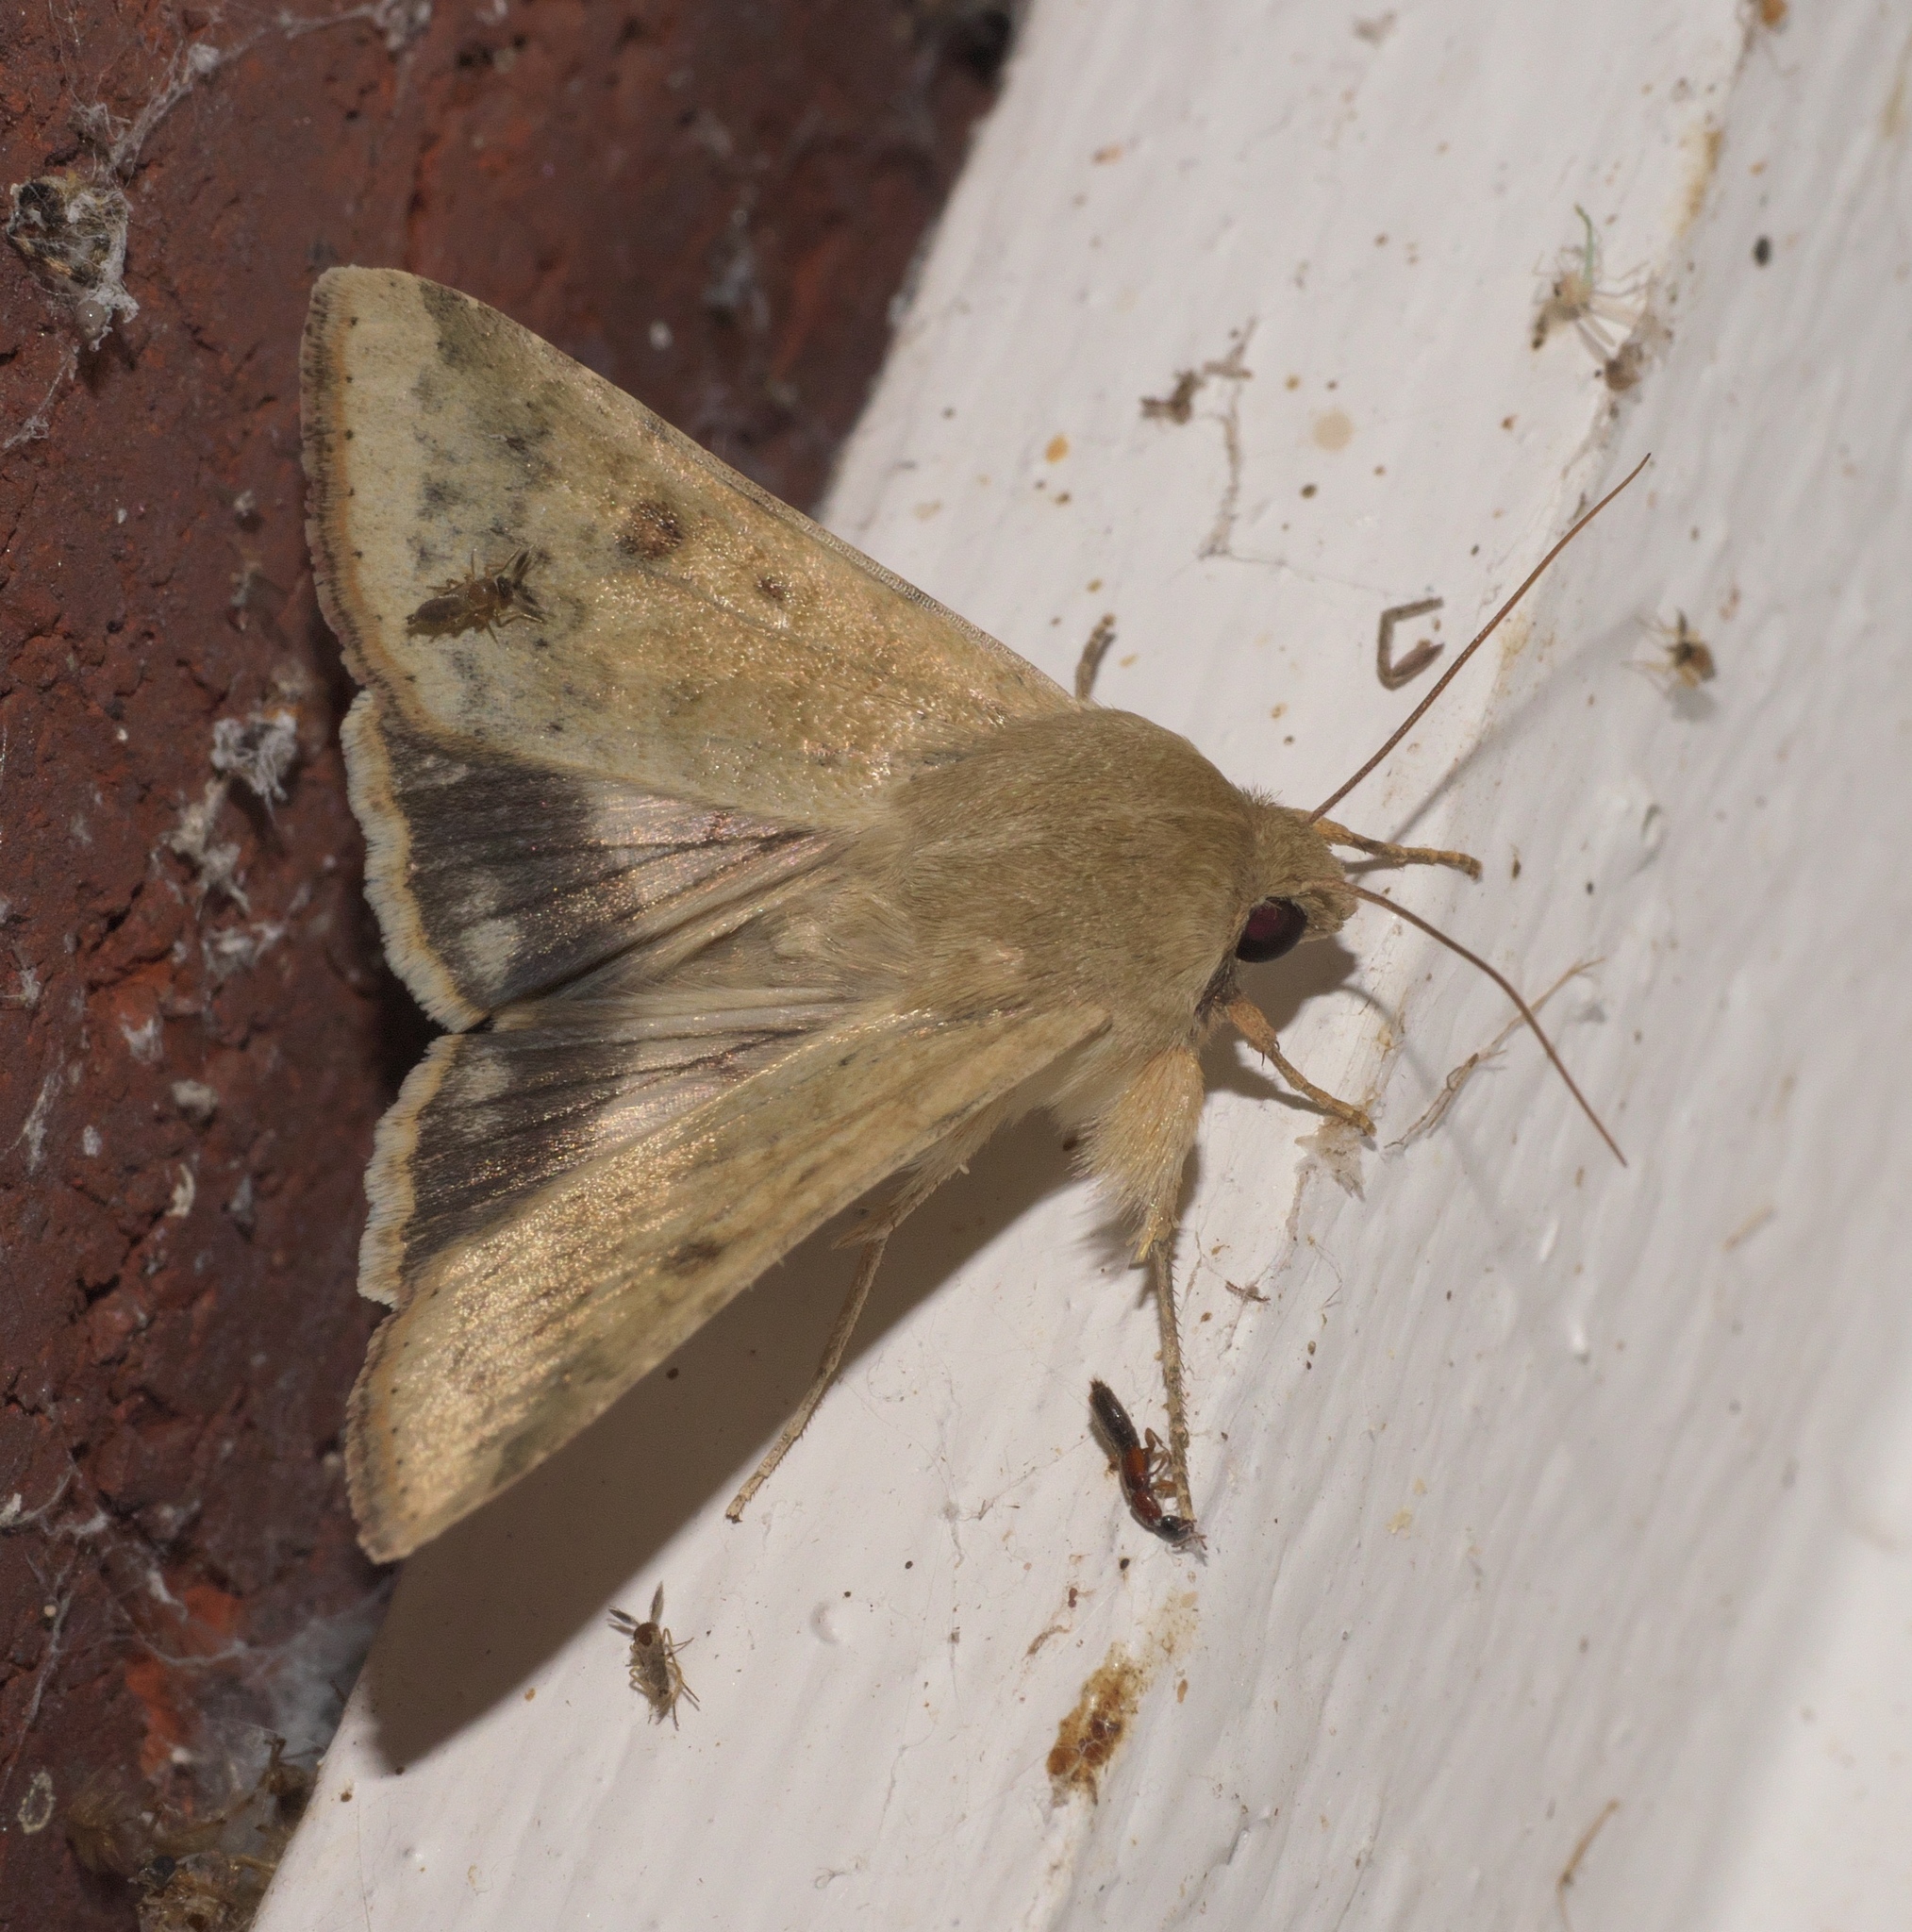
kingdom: Animalia
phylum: Arthropoda
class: Insecta
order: Lepidoptera
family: Noctuidae
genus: Helicoverpa
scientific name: Helicoverpa zea
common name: Bollworm
